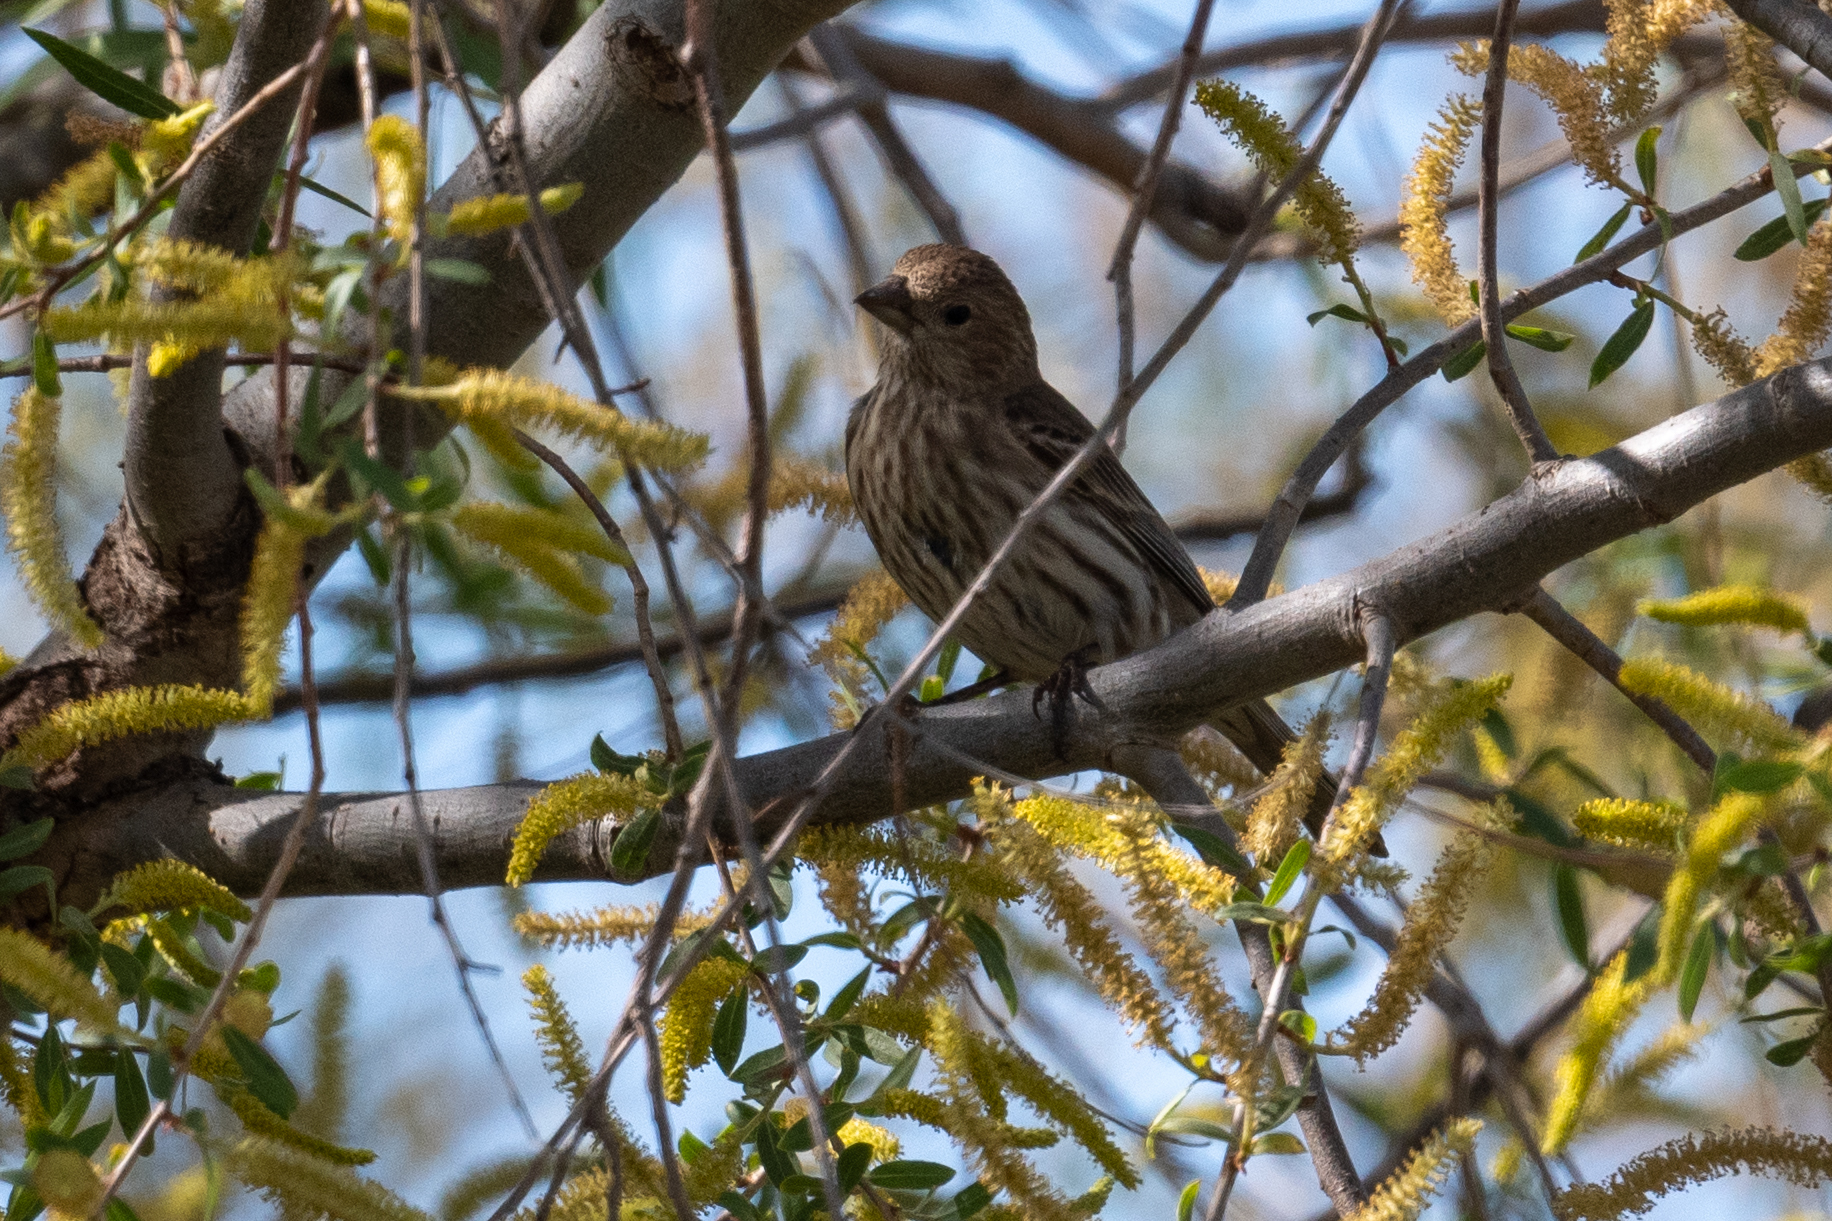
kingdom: Animalia
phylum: Chordata
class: Aves
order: Passeriformes
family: Fringillidae
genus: Haemorhous
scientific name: Haemorhous mexicanus
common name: House finch
